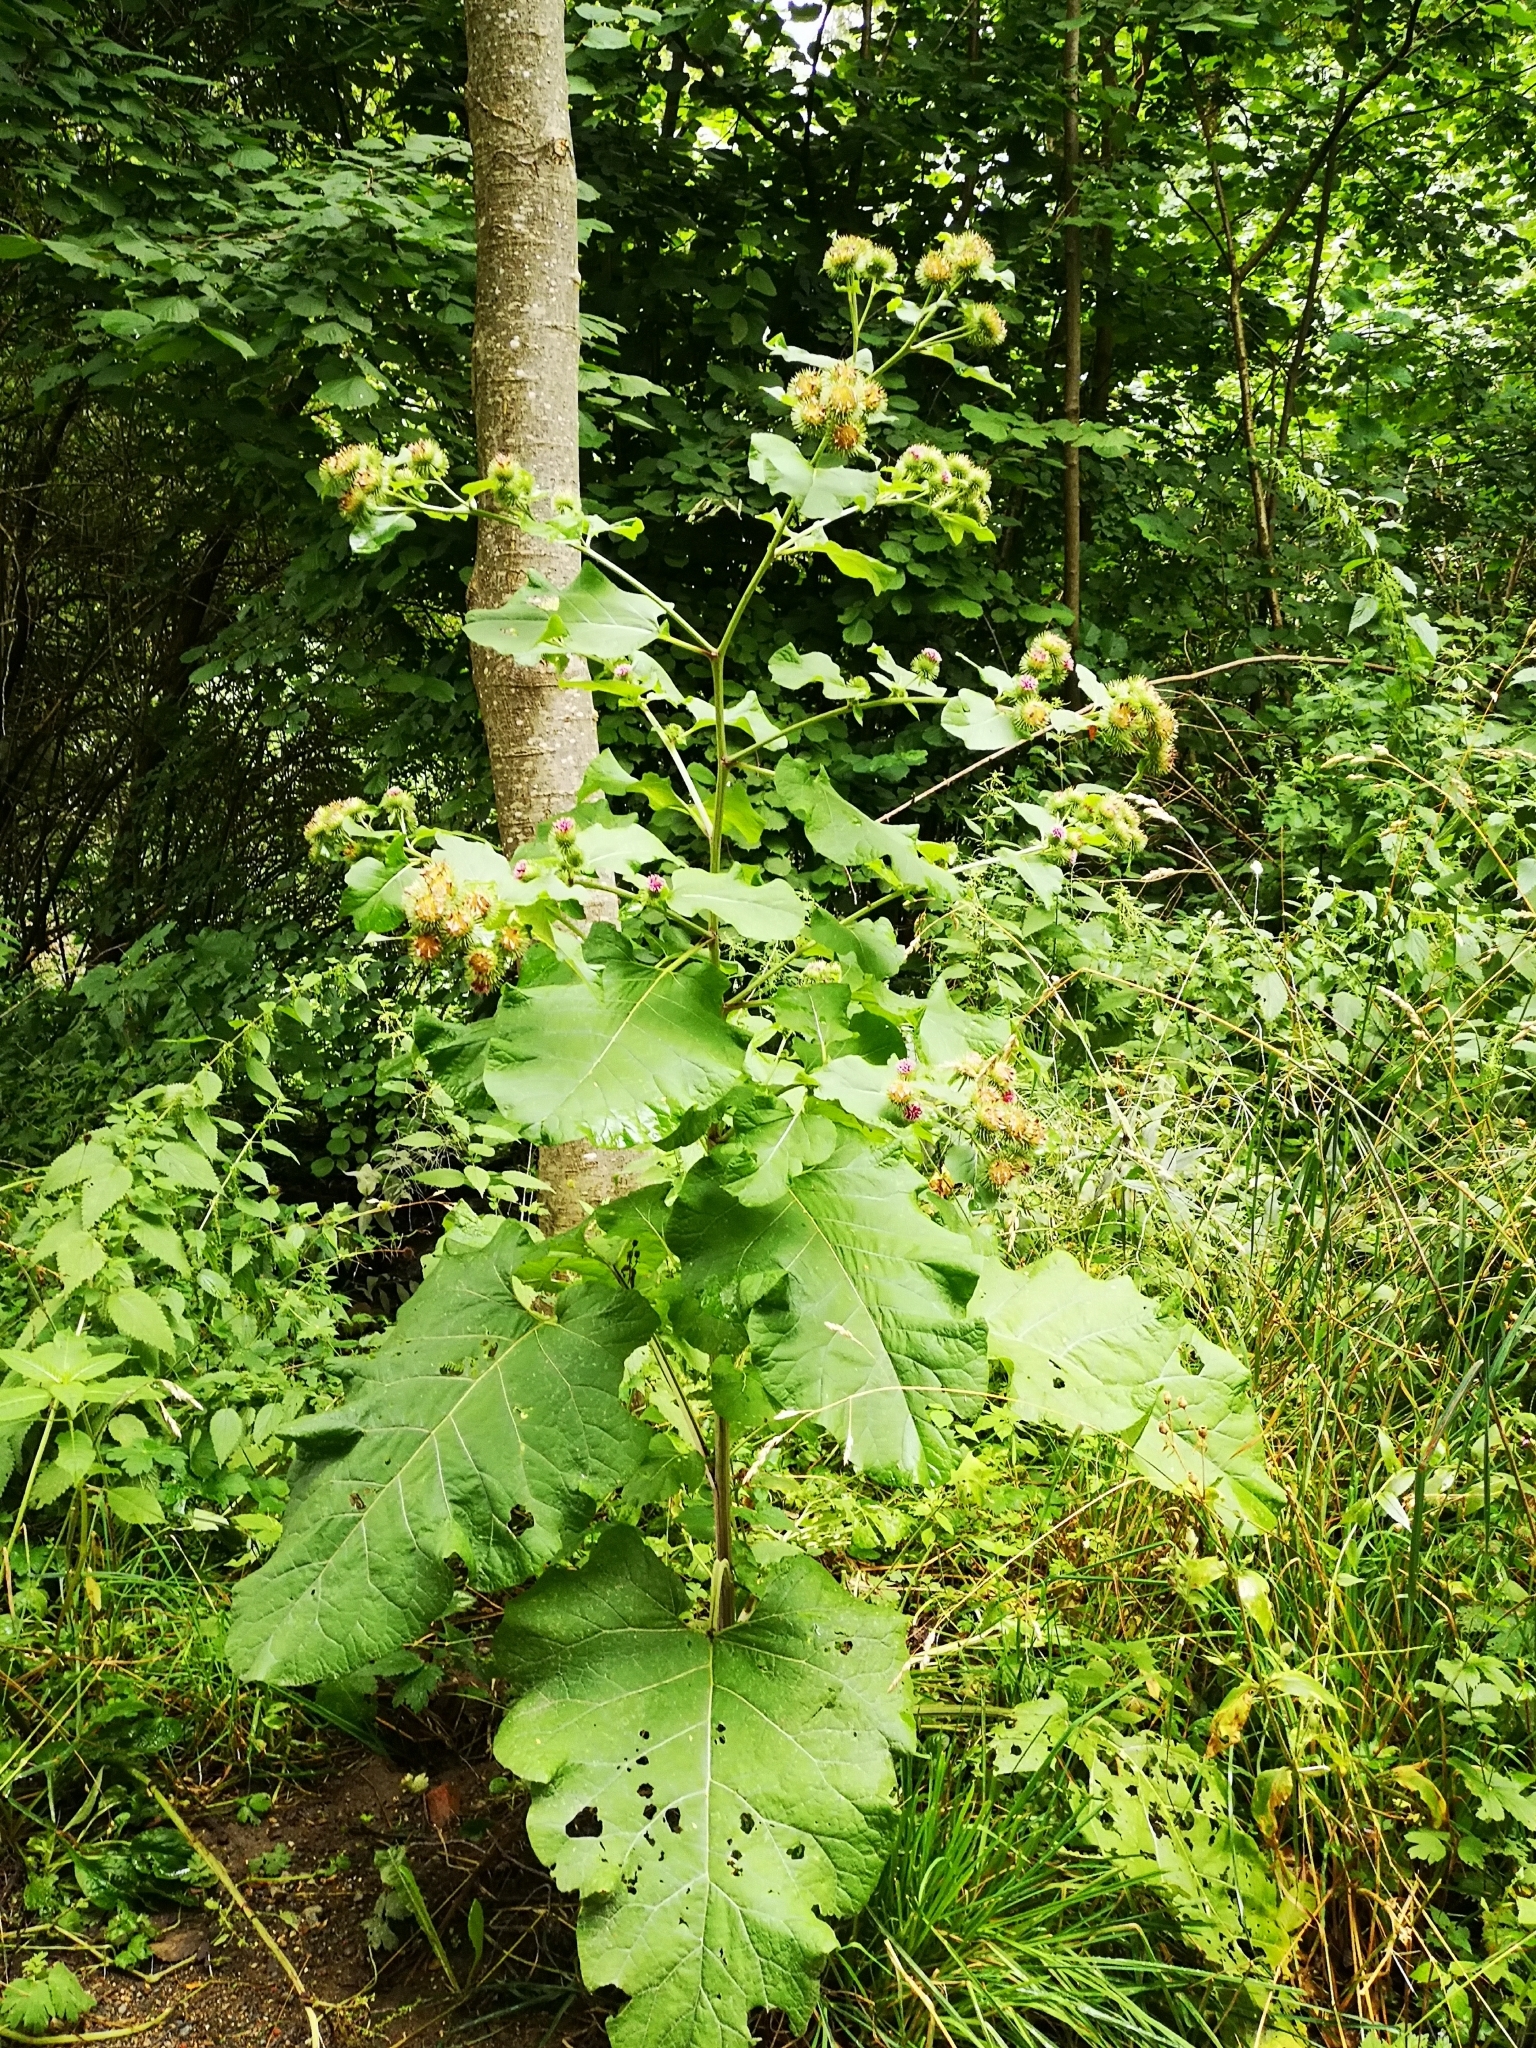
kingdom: Plantae
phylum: Tracheophyta
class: Magnoliopsida
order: Asterales
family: Asteraceae
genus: Arctium
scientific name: Arctium lappa
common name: Greater burdock
